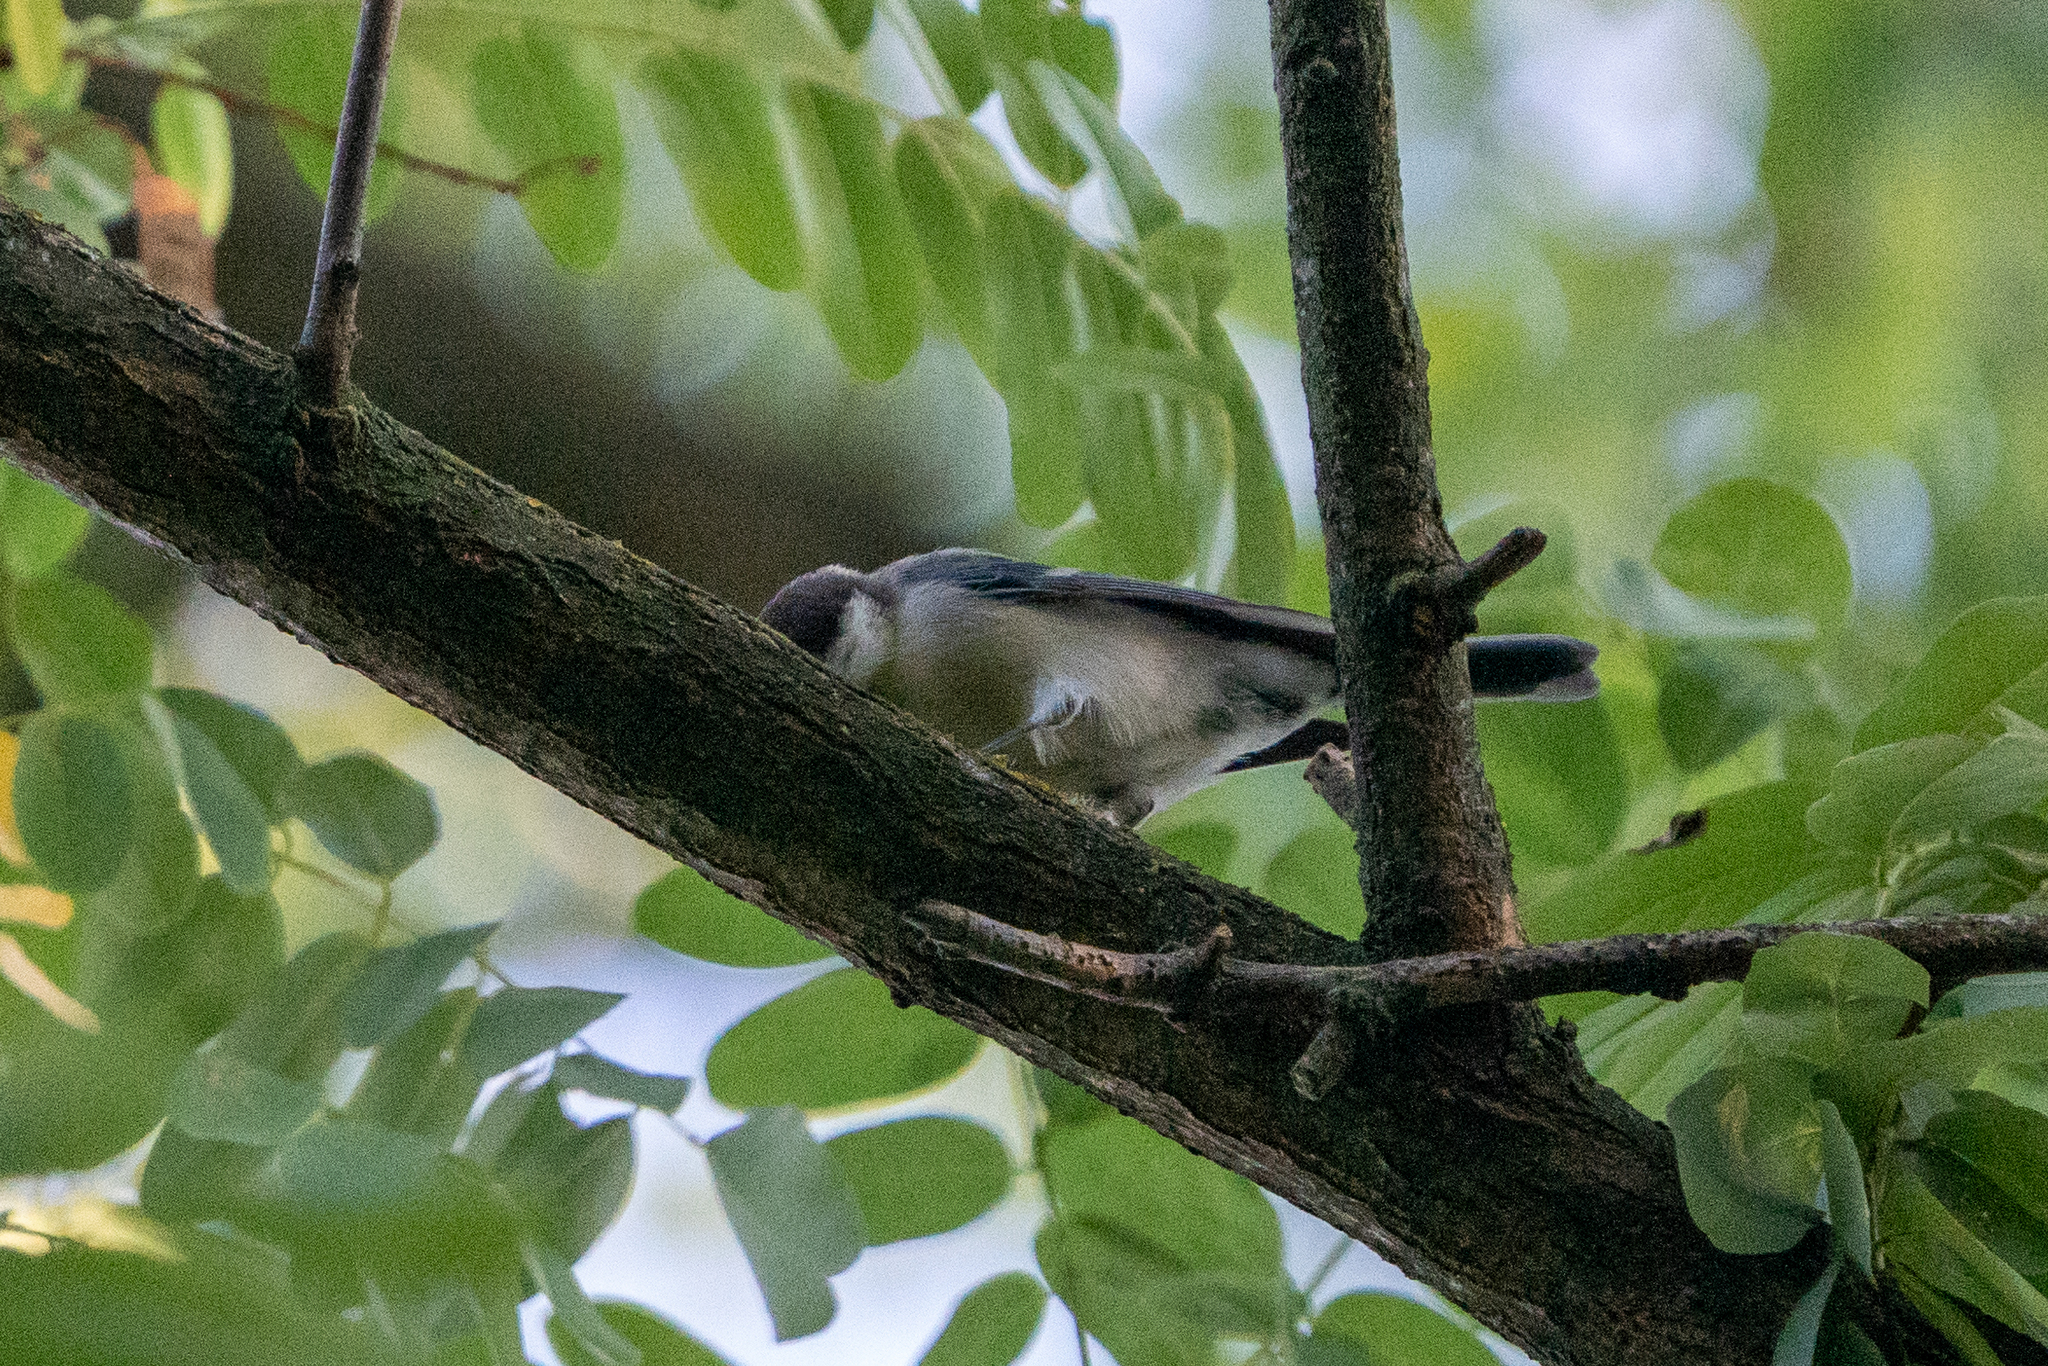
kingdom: Animalia
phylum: Chordata
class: Aves
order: Passeriformes
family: Paridae
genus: Periparus
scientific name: Periparus ater
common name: Coal tit
